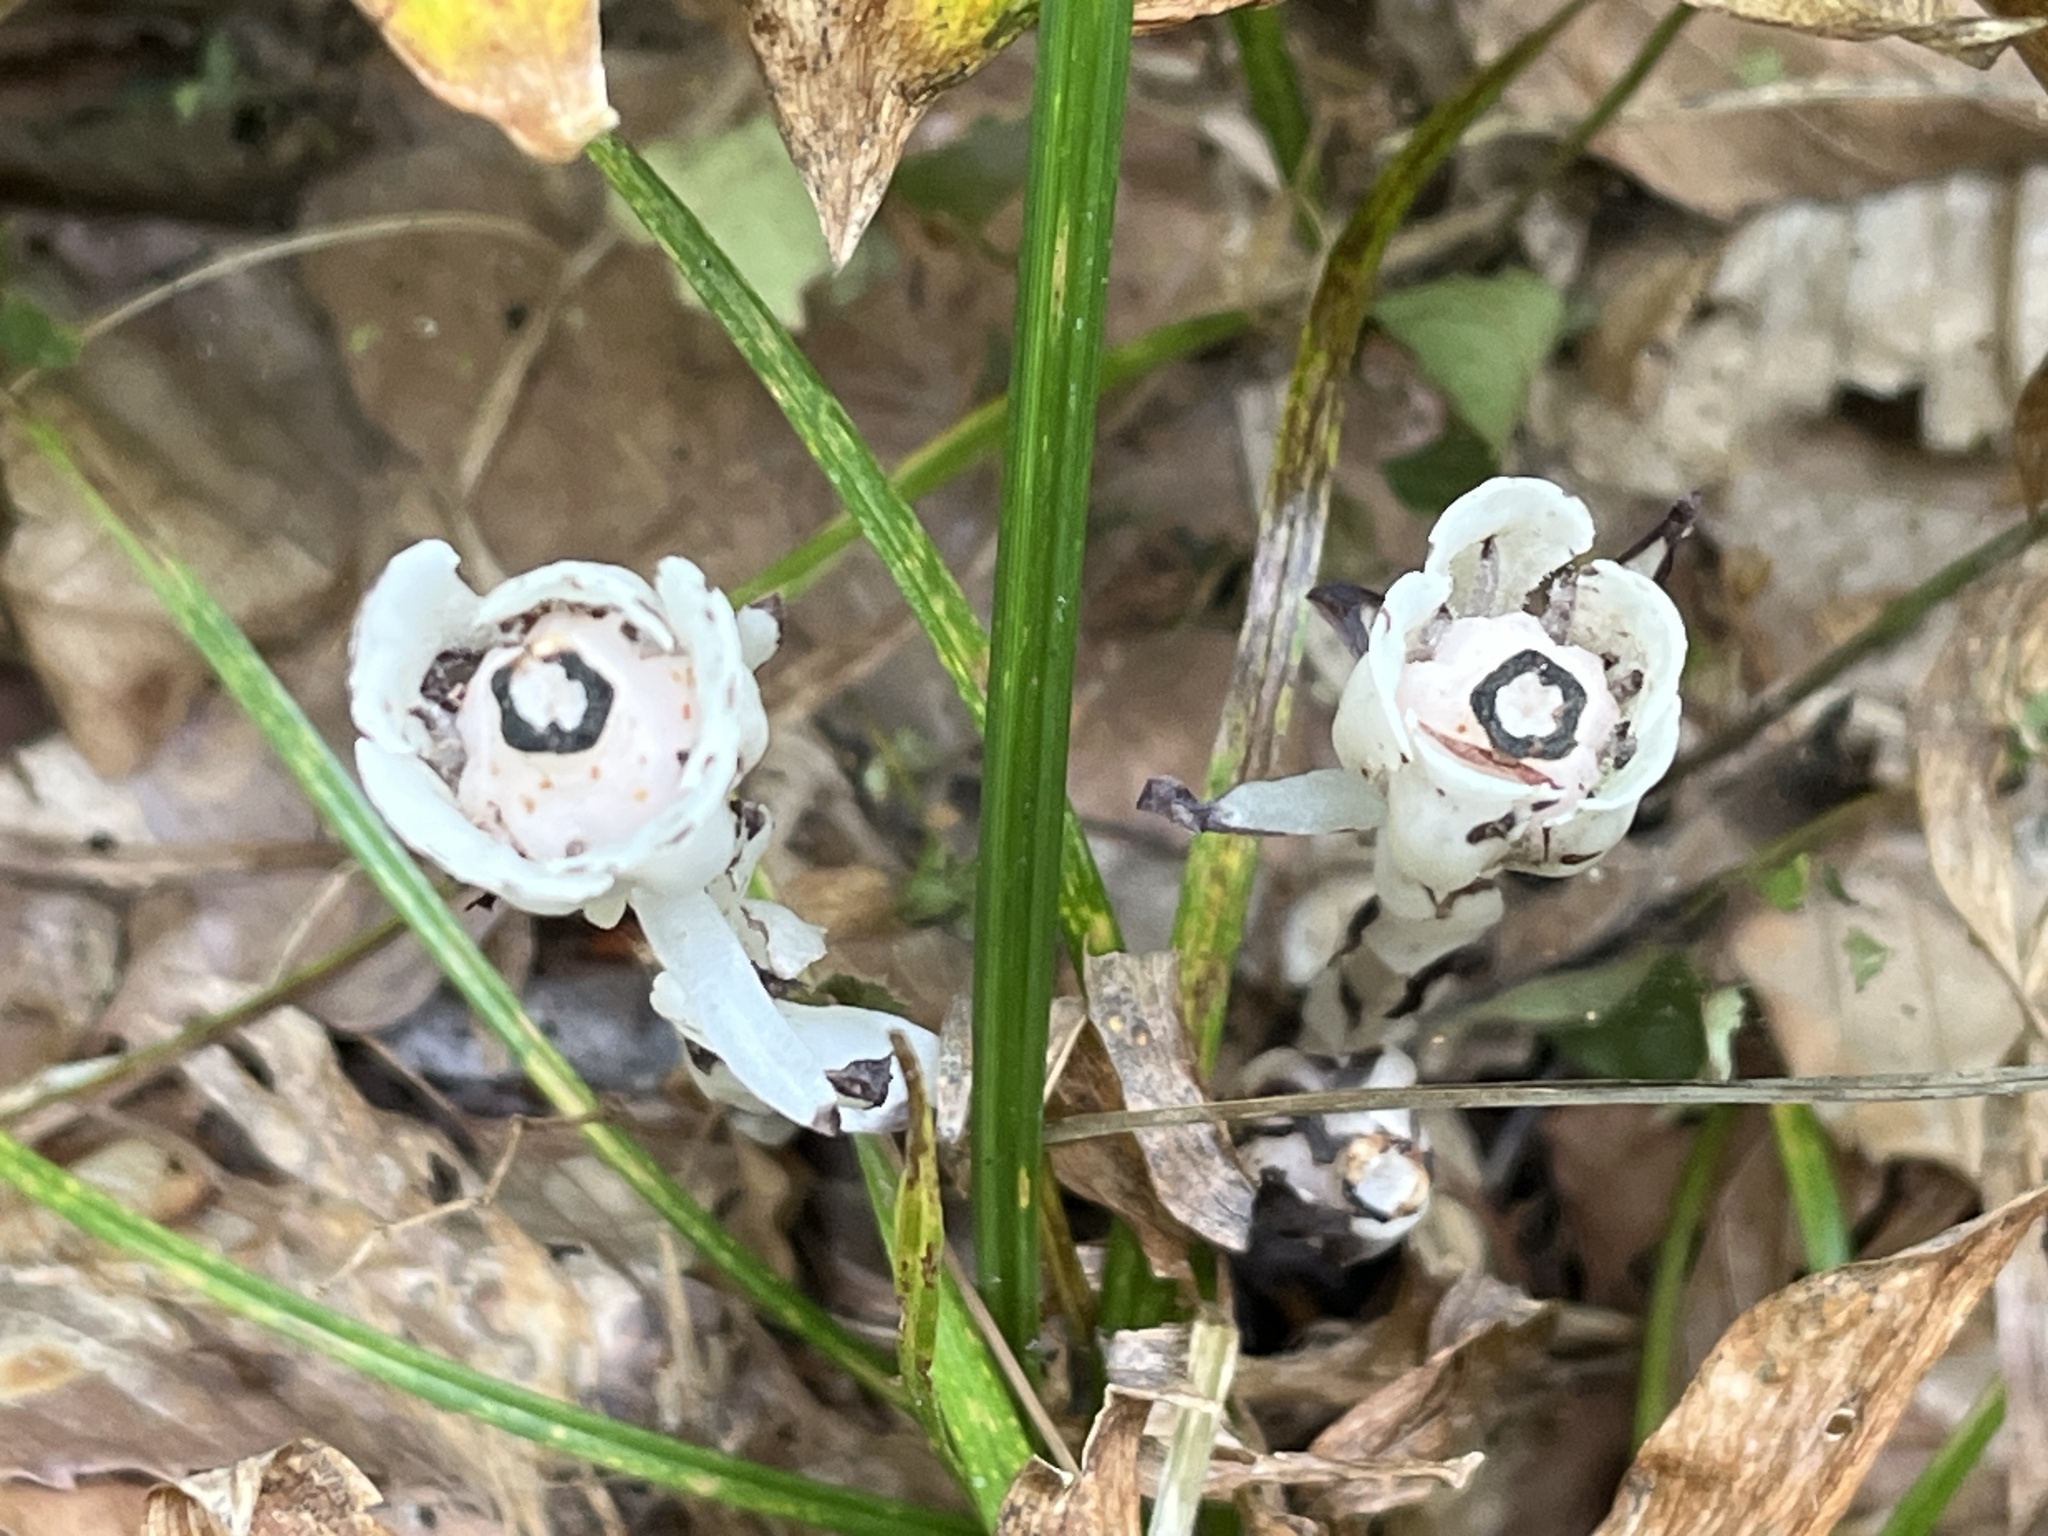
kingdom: Plantae
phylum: Tracheophyta
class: Magnoliopsida
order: Ericales
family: Ericaceae
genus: Monotropa
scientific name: Monotropa uniflora
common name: Convulsion root
